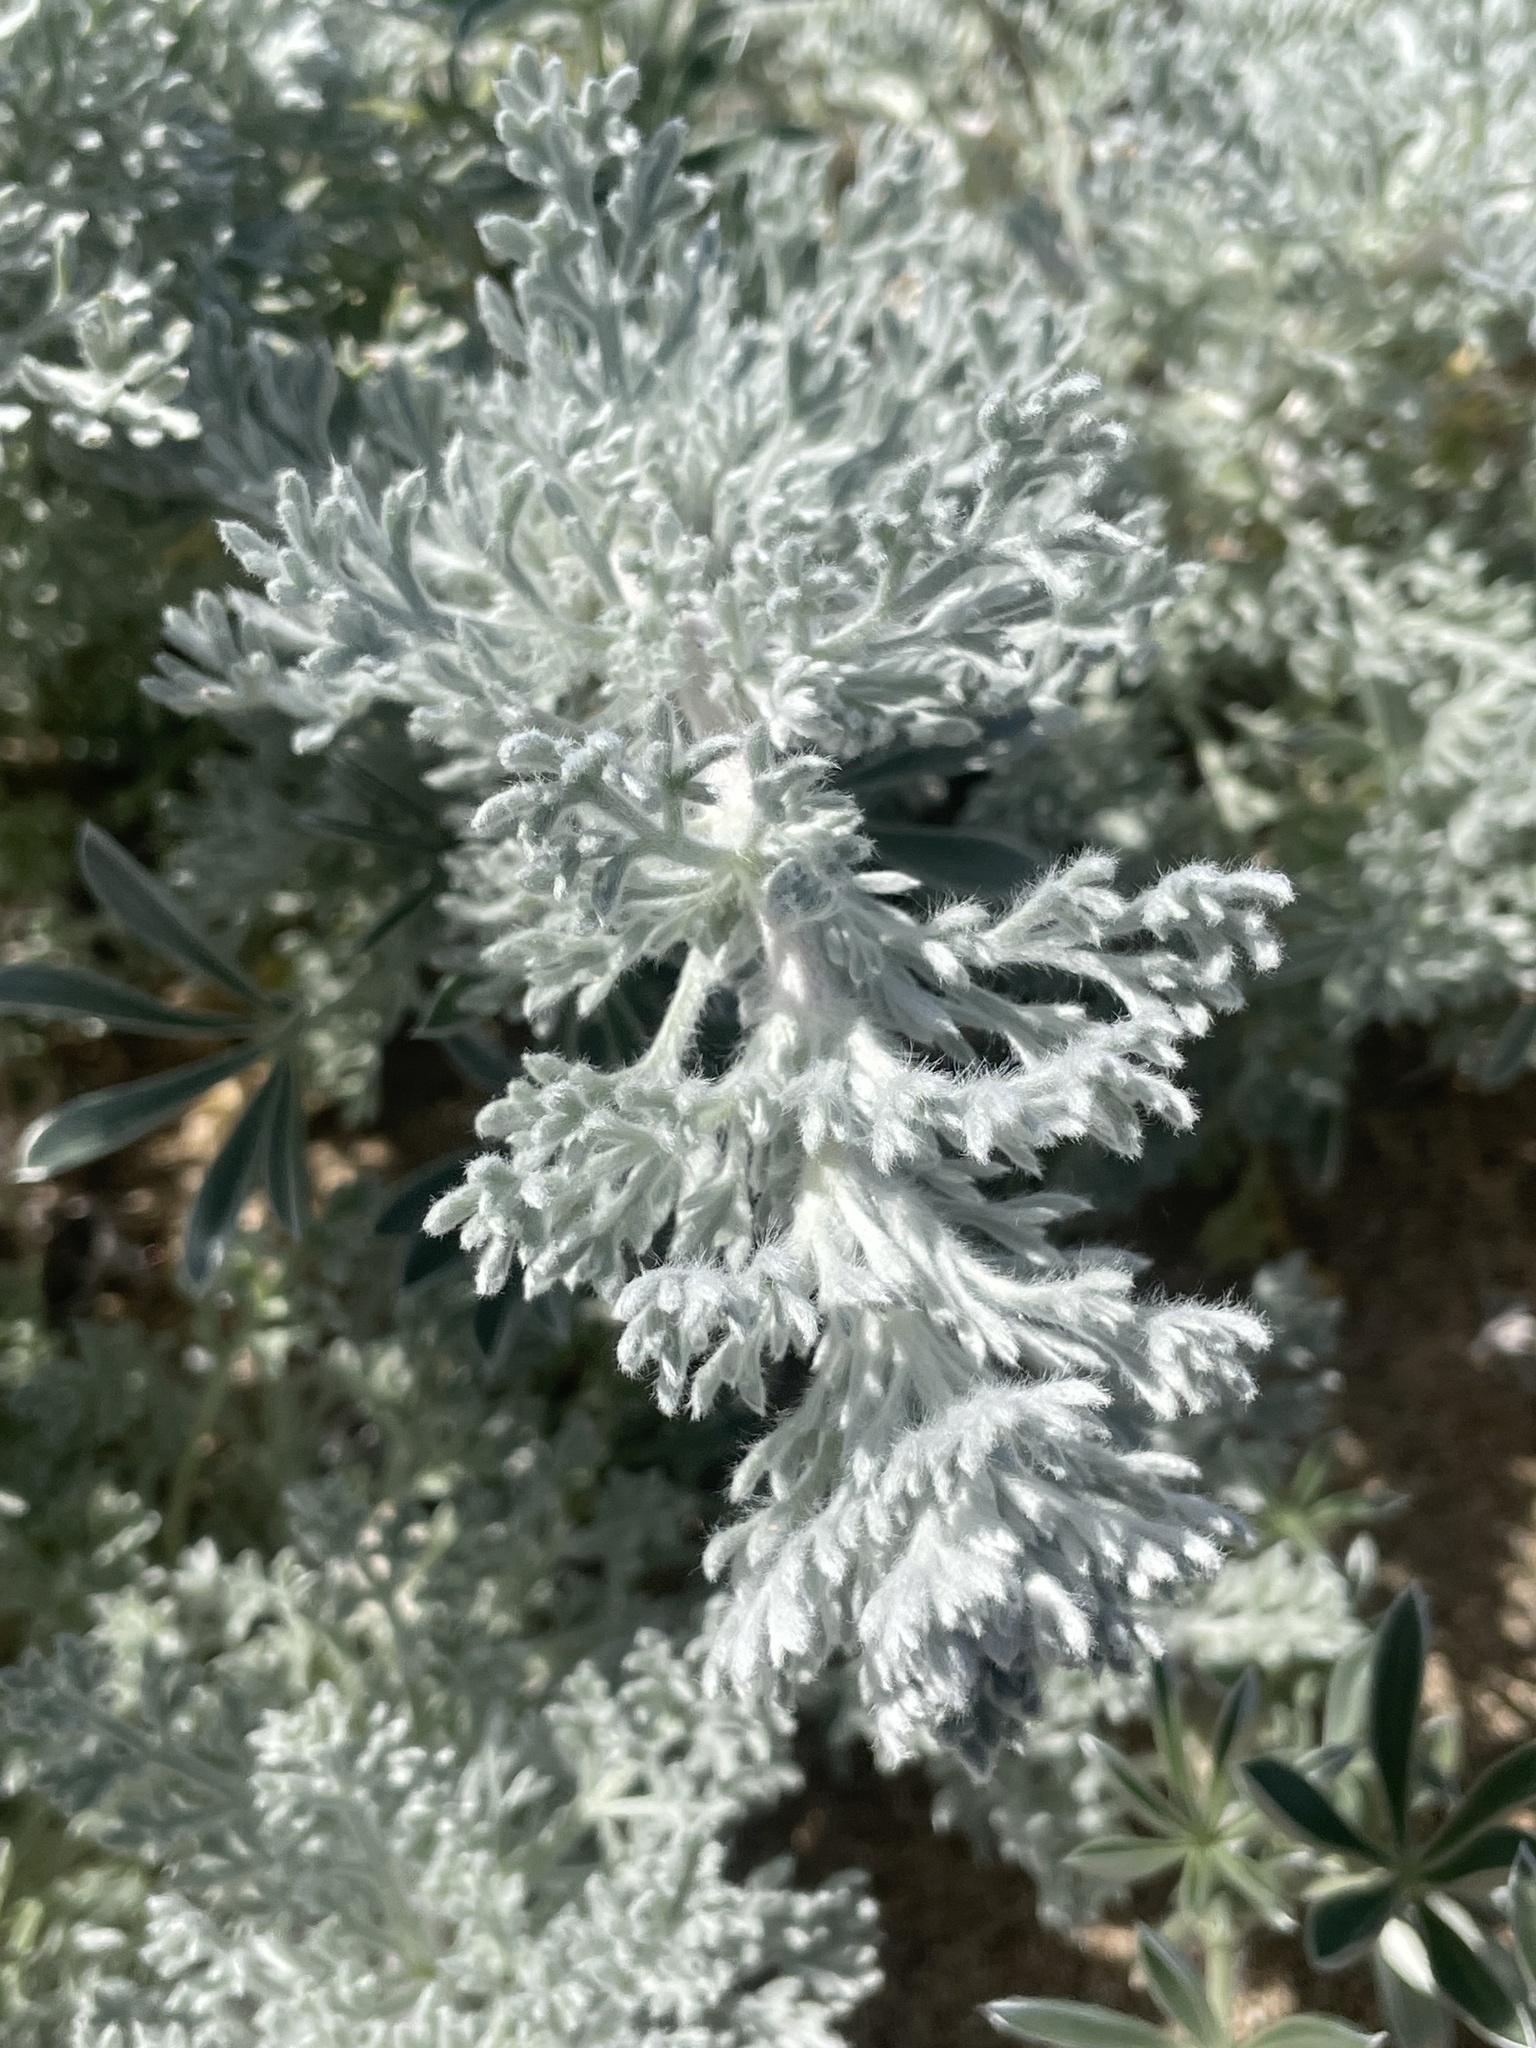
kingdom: Plantae
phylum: Tracheophyta
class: Magnoliopsida
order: Asterales
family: Asteraceae
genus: Artemisia
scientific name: Artemisia pycnocephala
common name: Coastal sagewort
